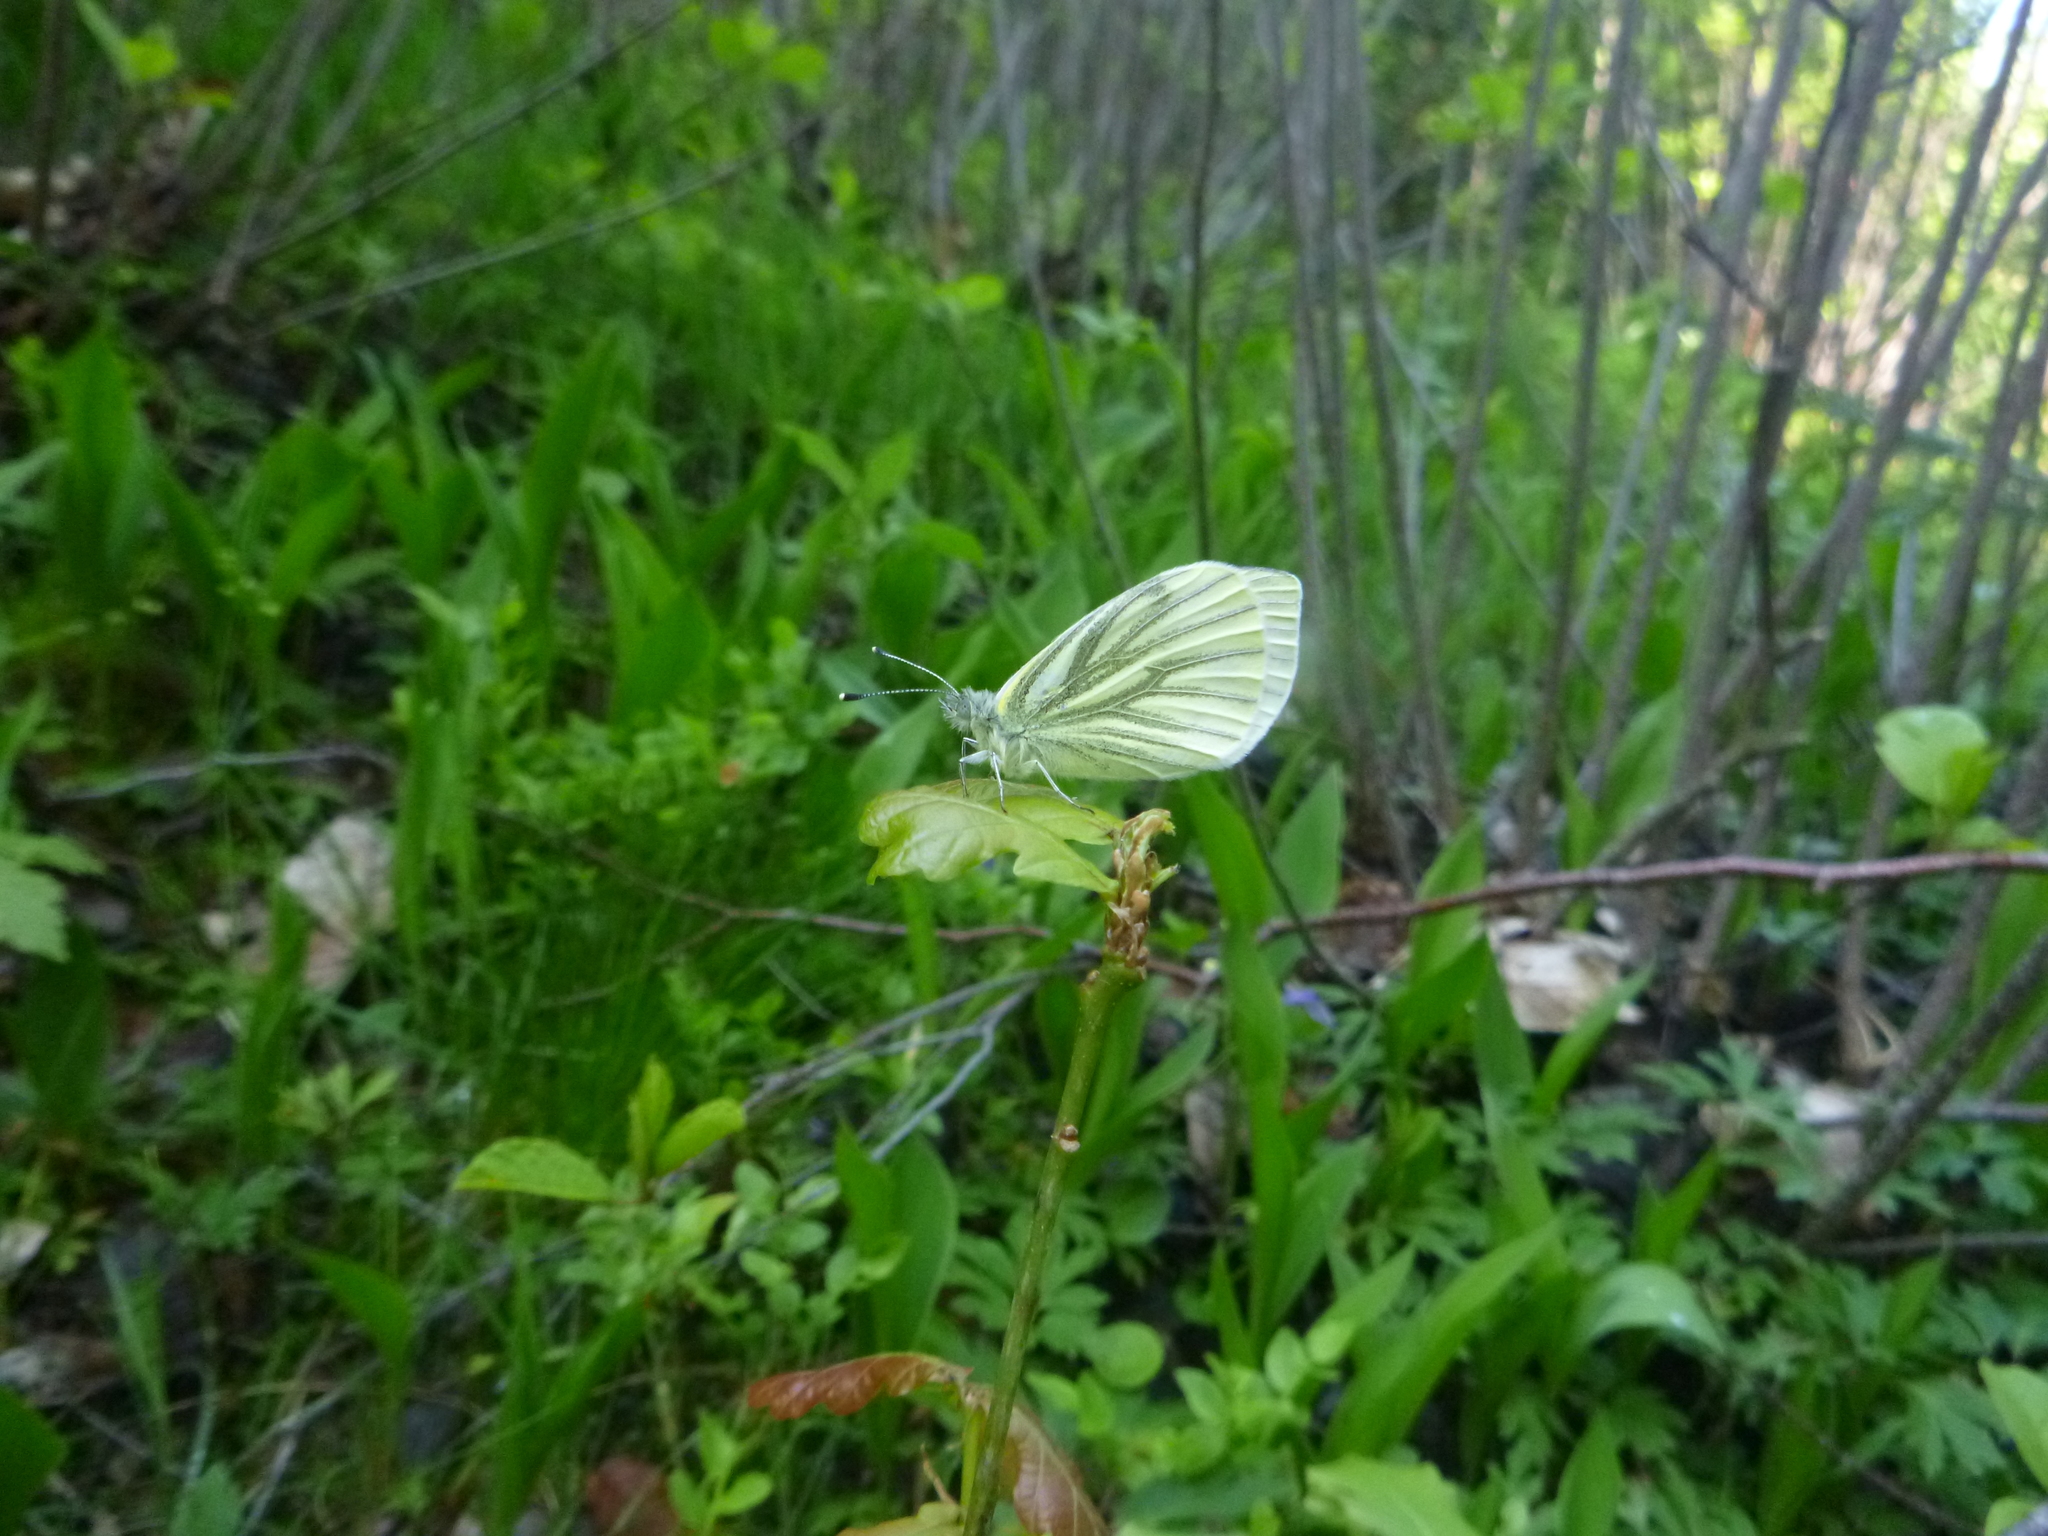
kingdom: Animalia
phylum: Arthropoda
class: Insecta
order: Lepidoptera
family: Pieridae
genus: Pieris
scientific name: Pieris napi
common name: Green-veined white
